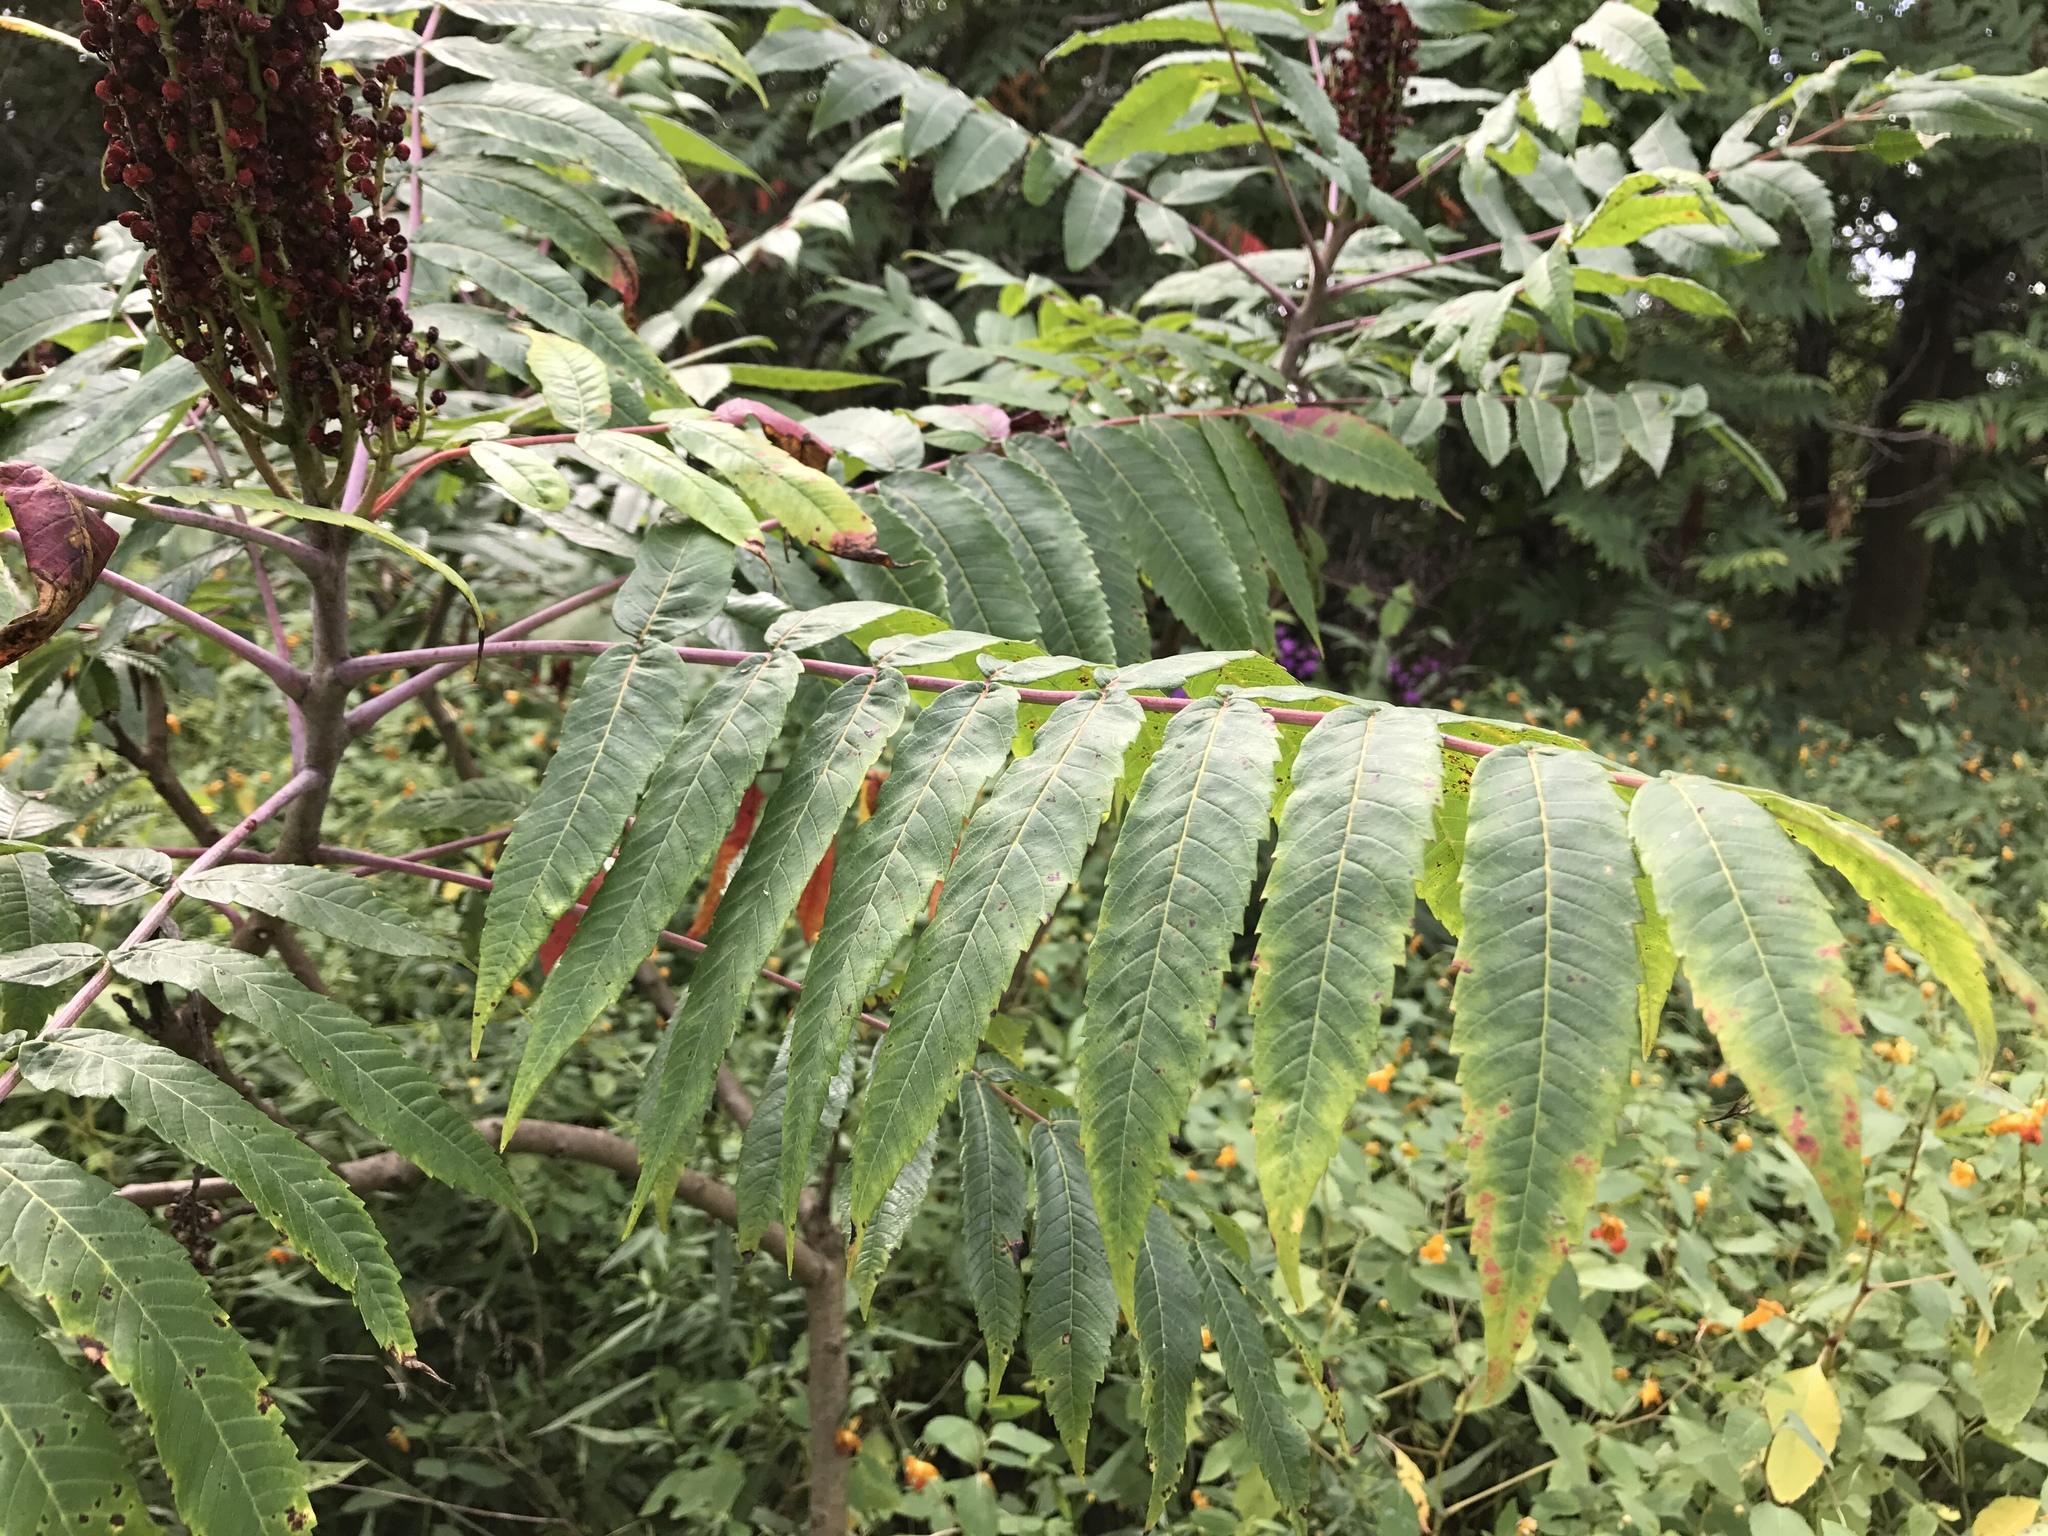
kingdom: Plantae
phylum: Tracheophyta
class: Magnoliopsida
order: Sapindales
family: Anacardiaceae
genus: Rhus
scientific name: Rhus glabra
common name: Scarlet sumac
